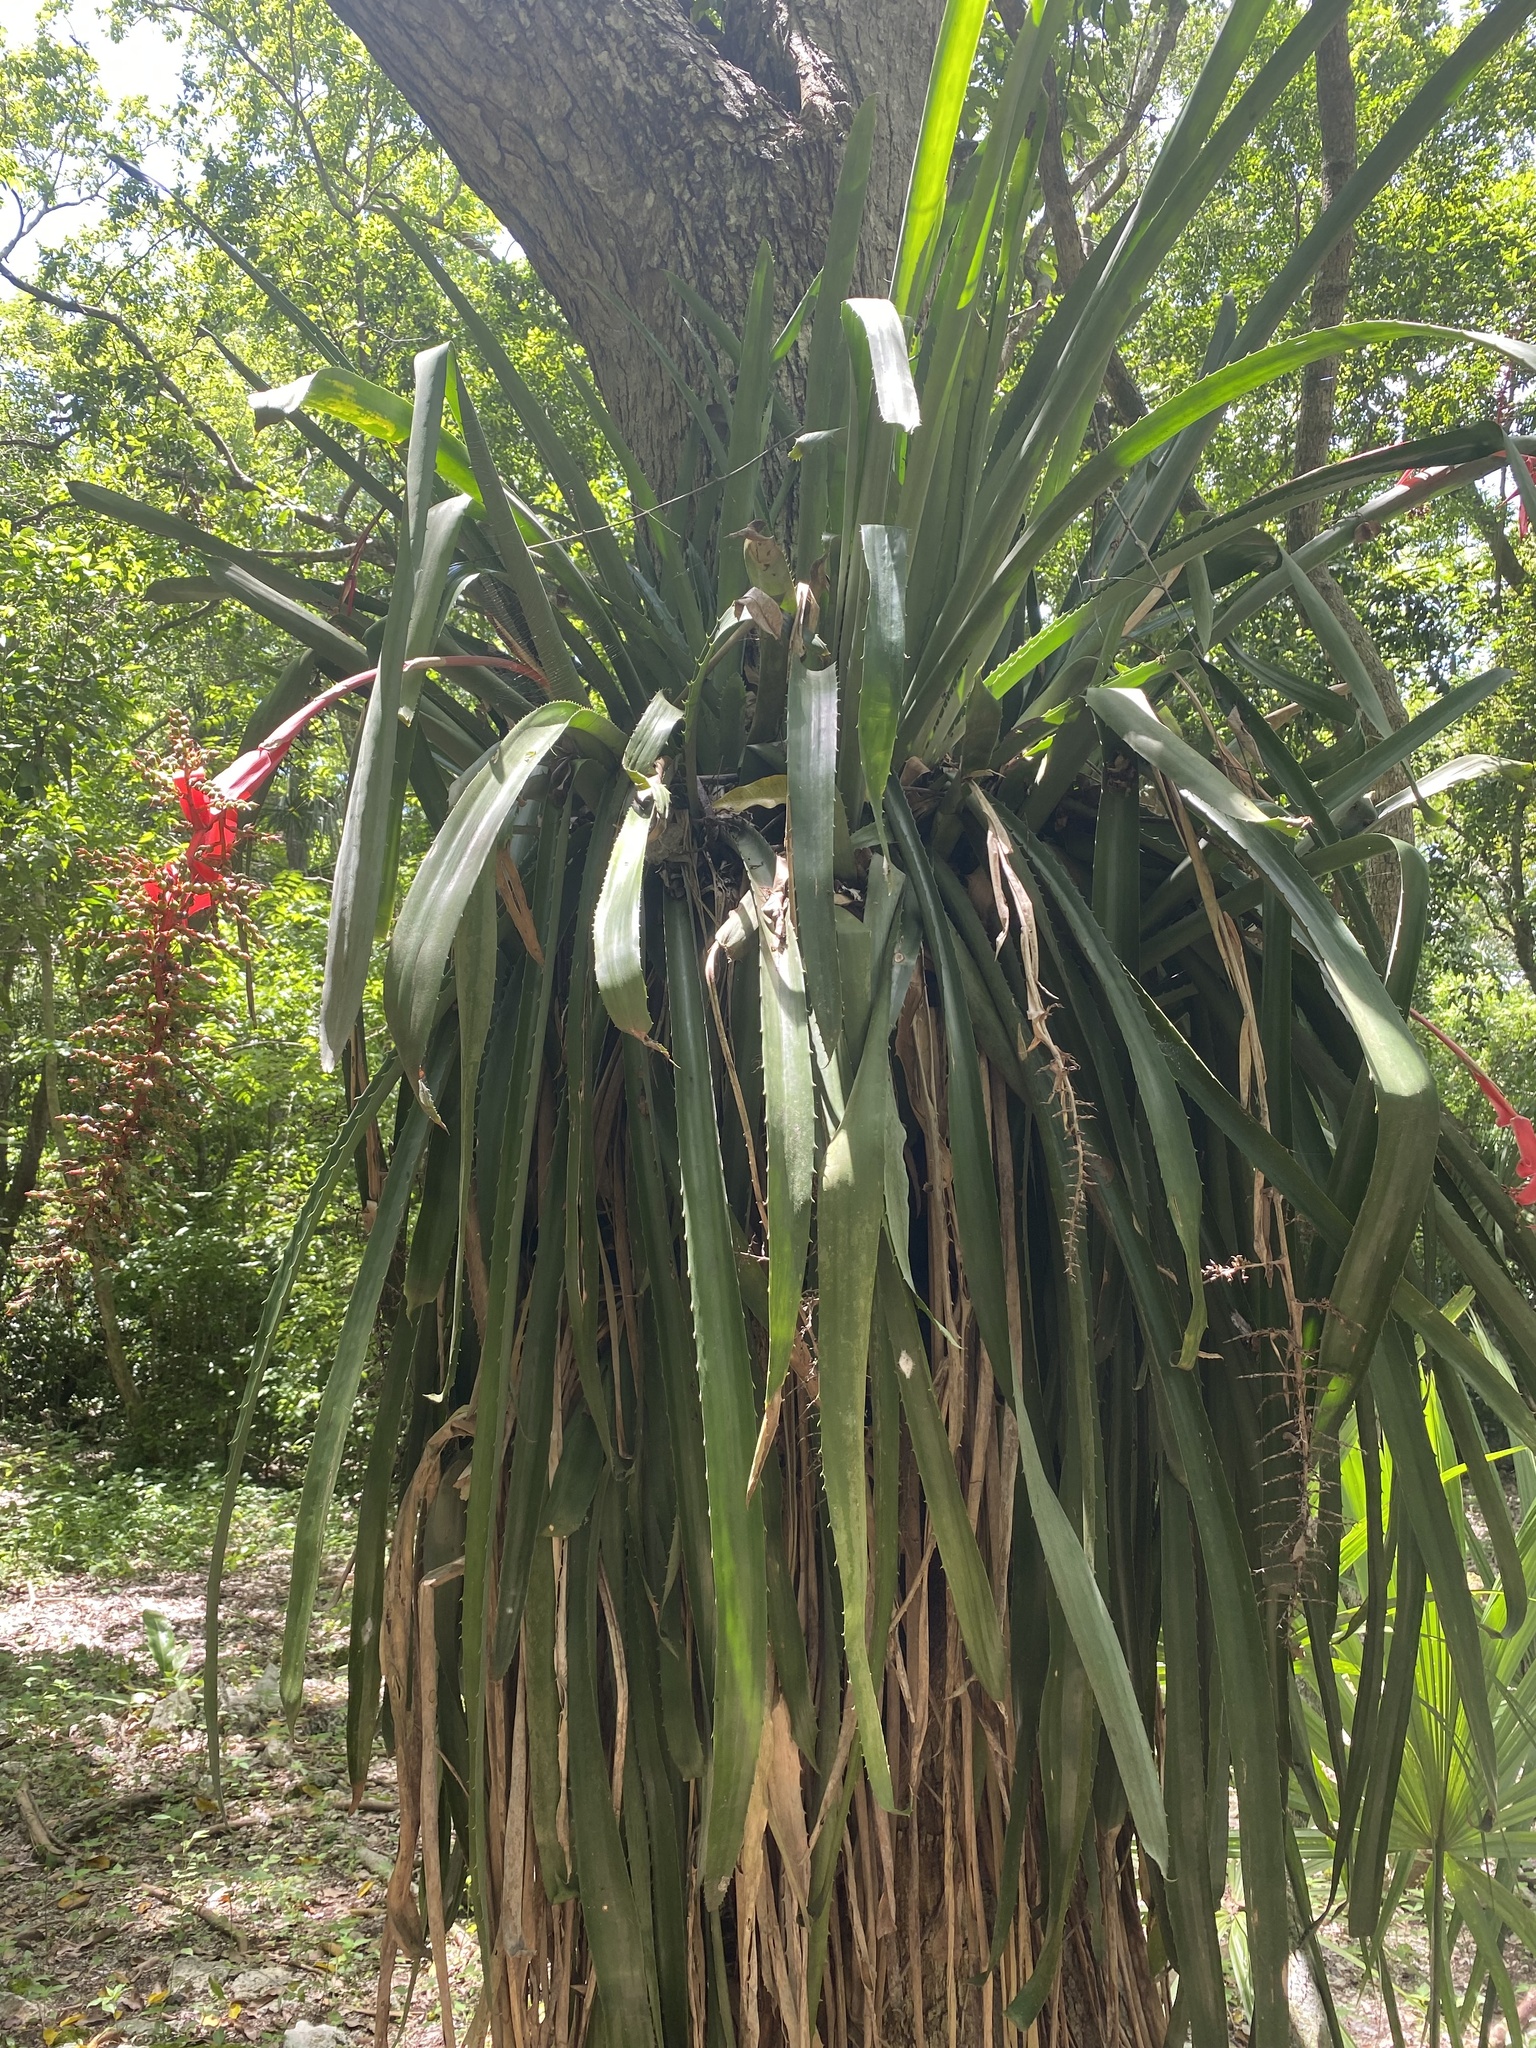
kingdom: Plantae
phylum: Tracheophyta
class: Liliopsida
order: Poales
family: Bromeliaceae
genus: Aechmea
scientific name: Aechmea bracteata
